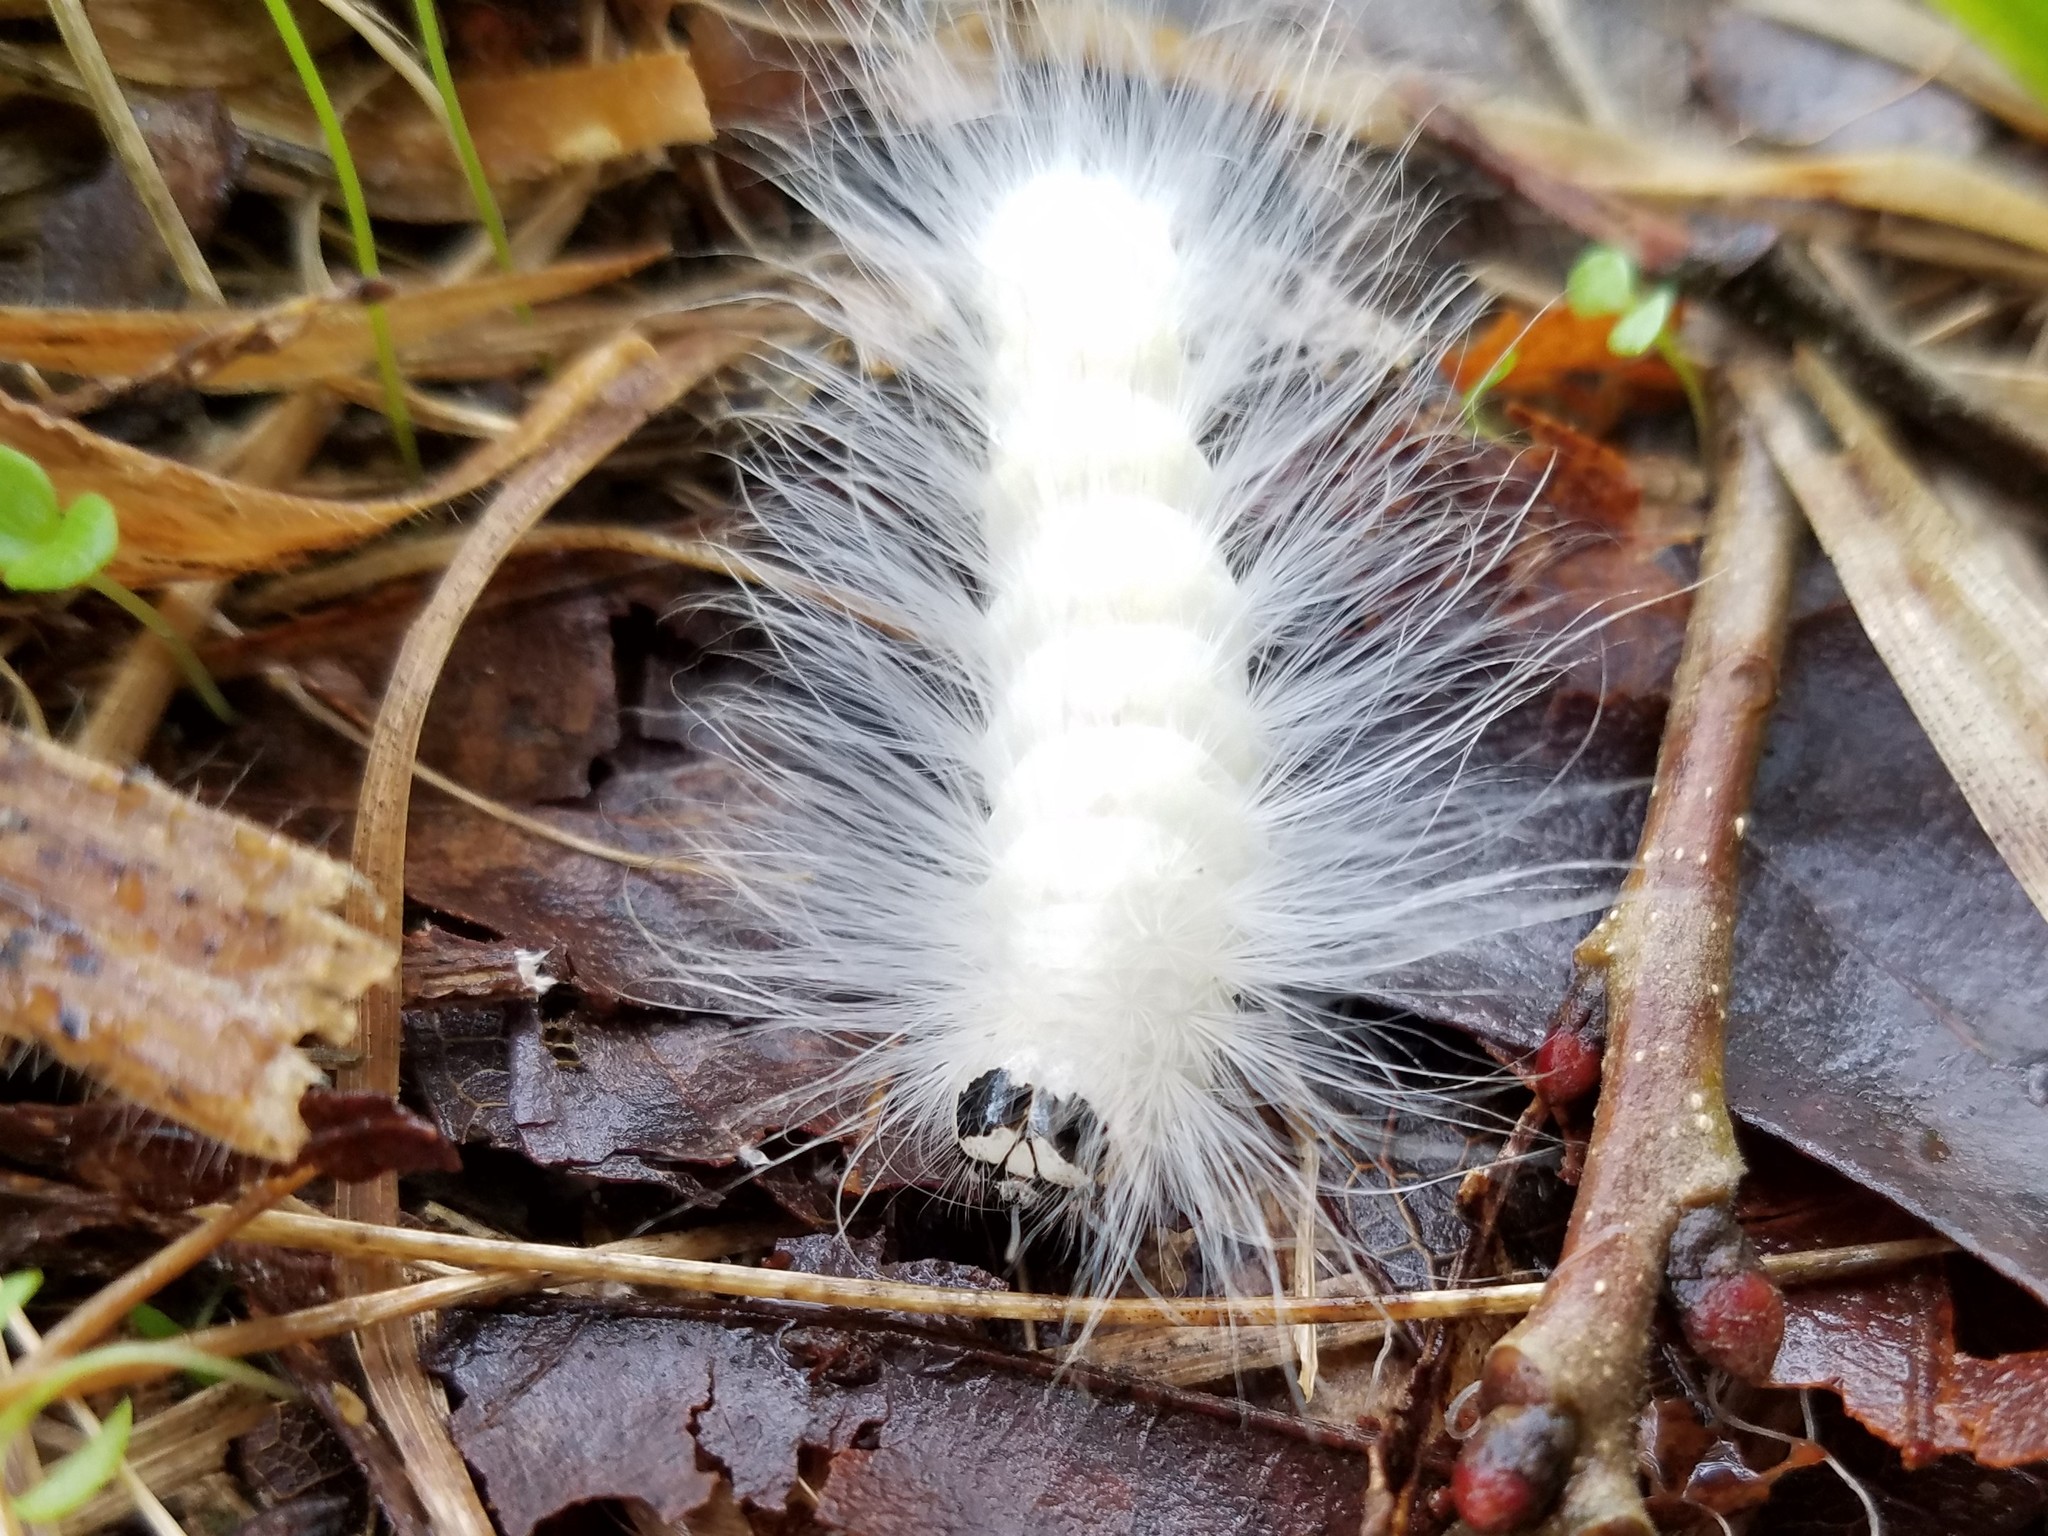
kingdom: Animalia
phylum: Arthropoda
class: Insecta
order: Lepidoptera
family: Noctuidae
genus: Charadra
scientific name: Charadra deridens
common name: Marbled tuffet
